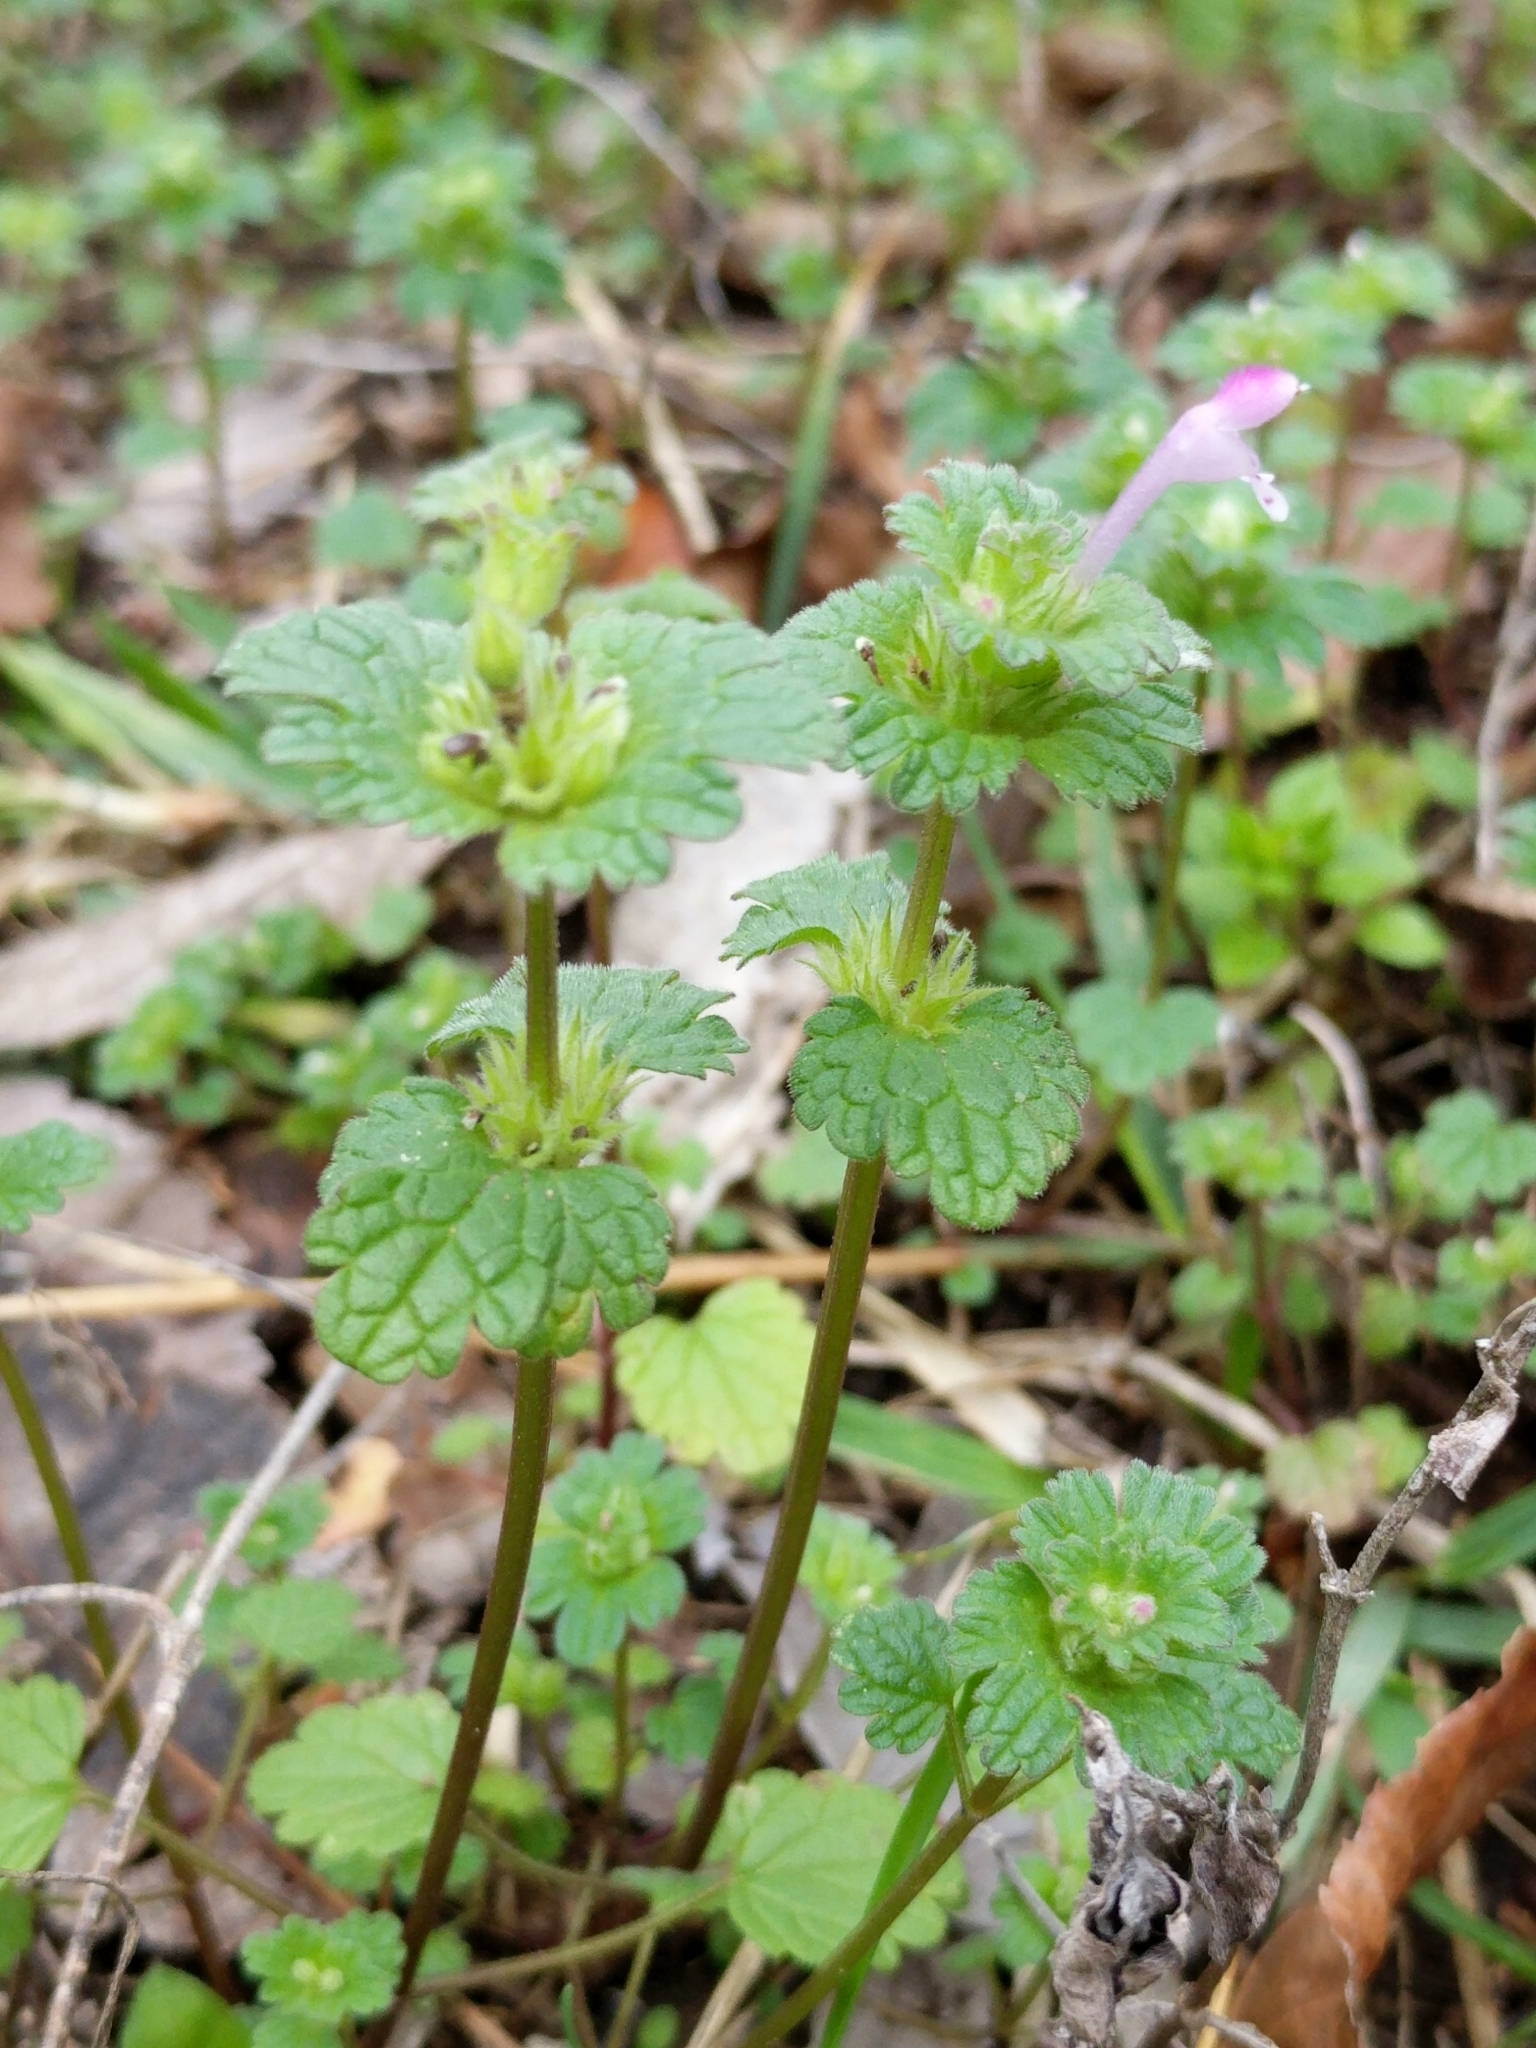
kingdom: Plantae
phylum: Tracheophyta
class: Magnoliopsida
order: Lamiales
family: Lamiaceae
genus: Lamium
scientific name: Lamium amplexicaule
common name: Henbit dead-nettle
